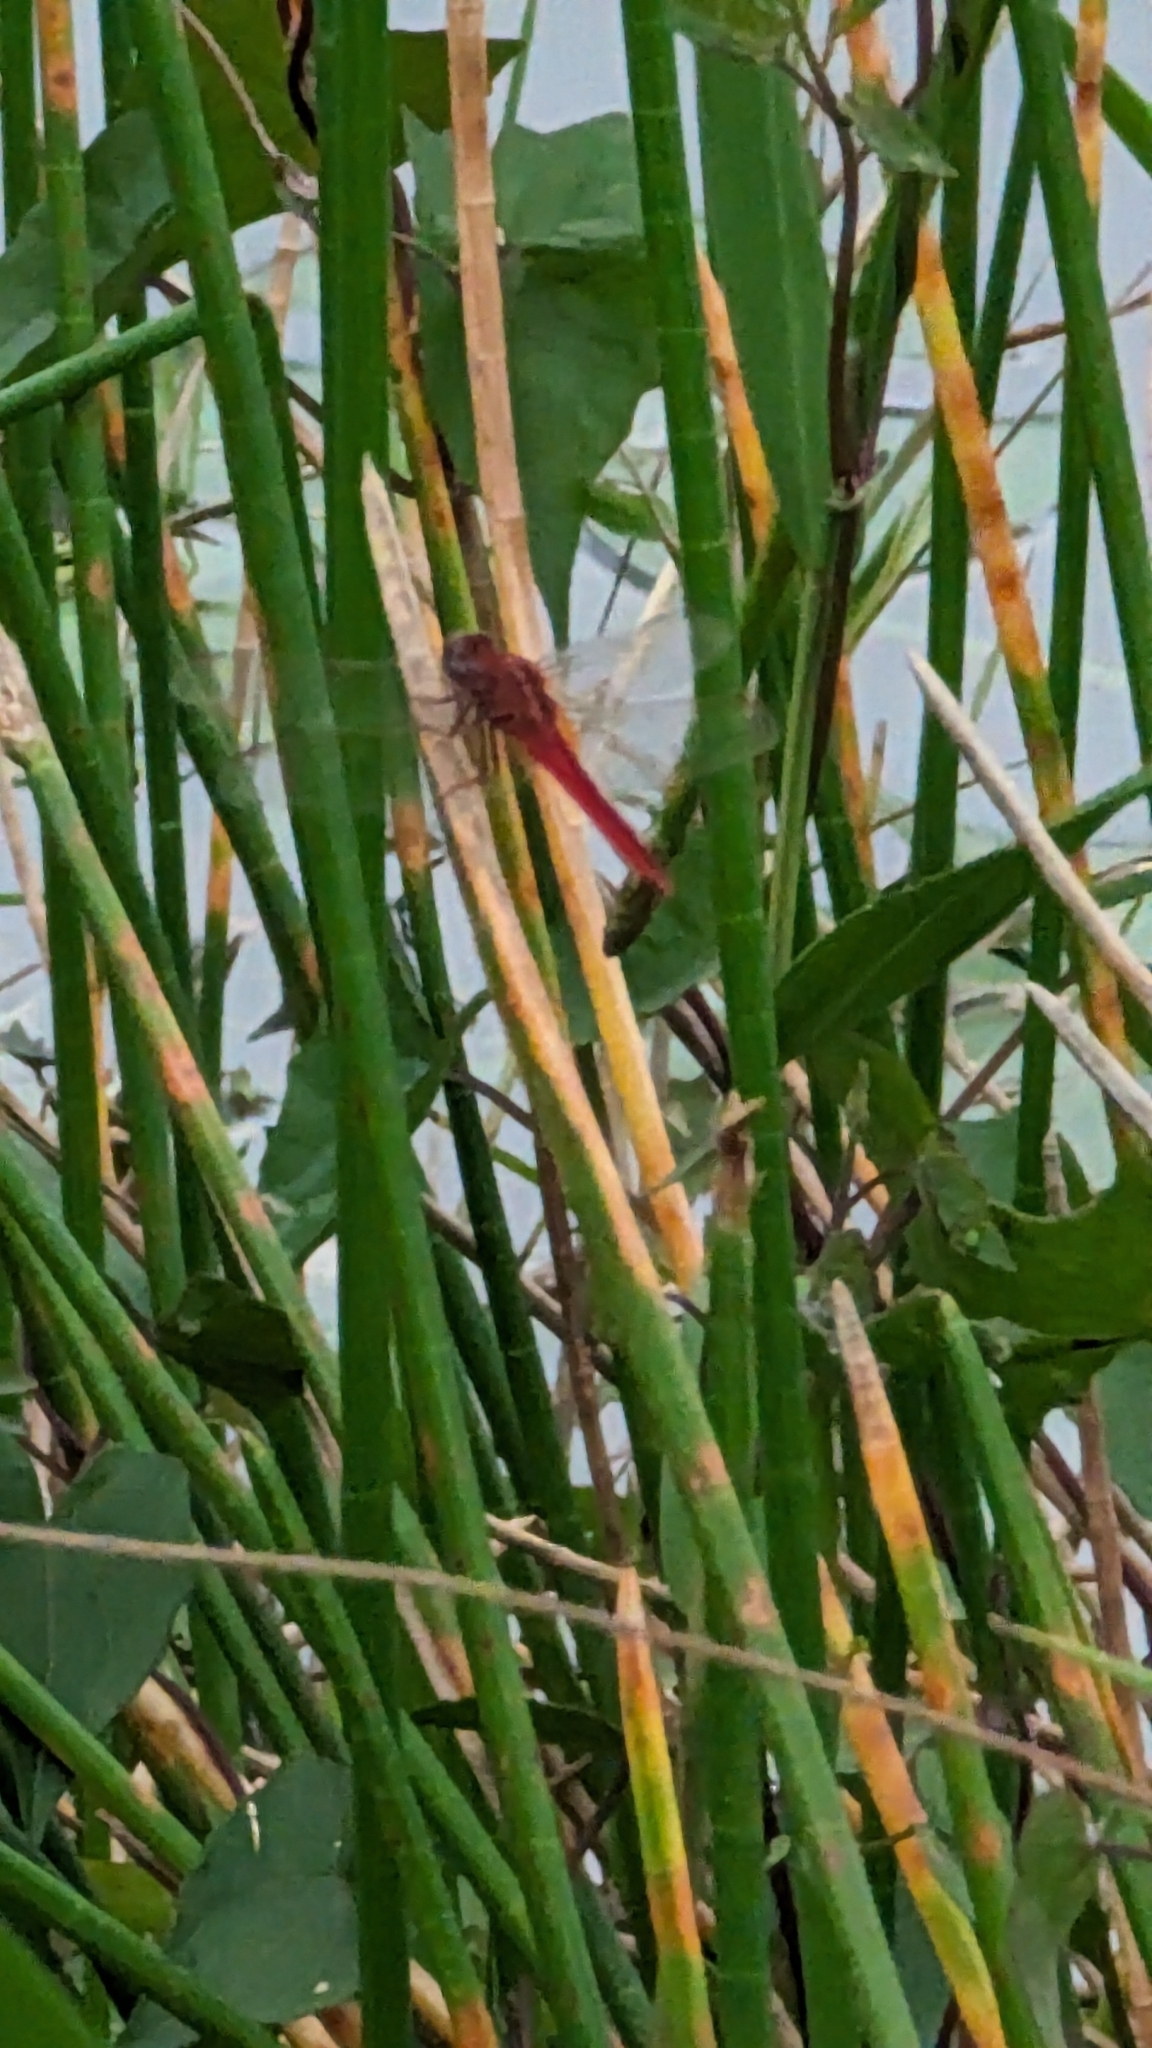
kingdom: Animalia
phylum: Arthropoda
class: Insecta
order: Odonata
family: Libellulidae
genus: Crocothemis
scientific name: Crocothemis servilia
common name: Scarlet skimmer
